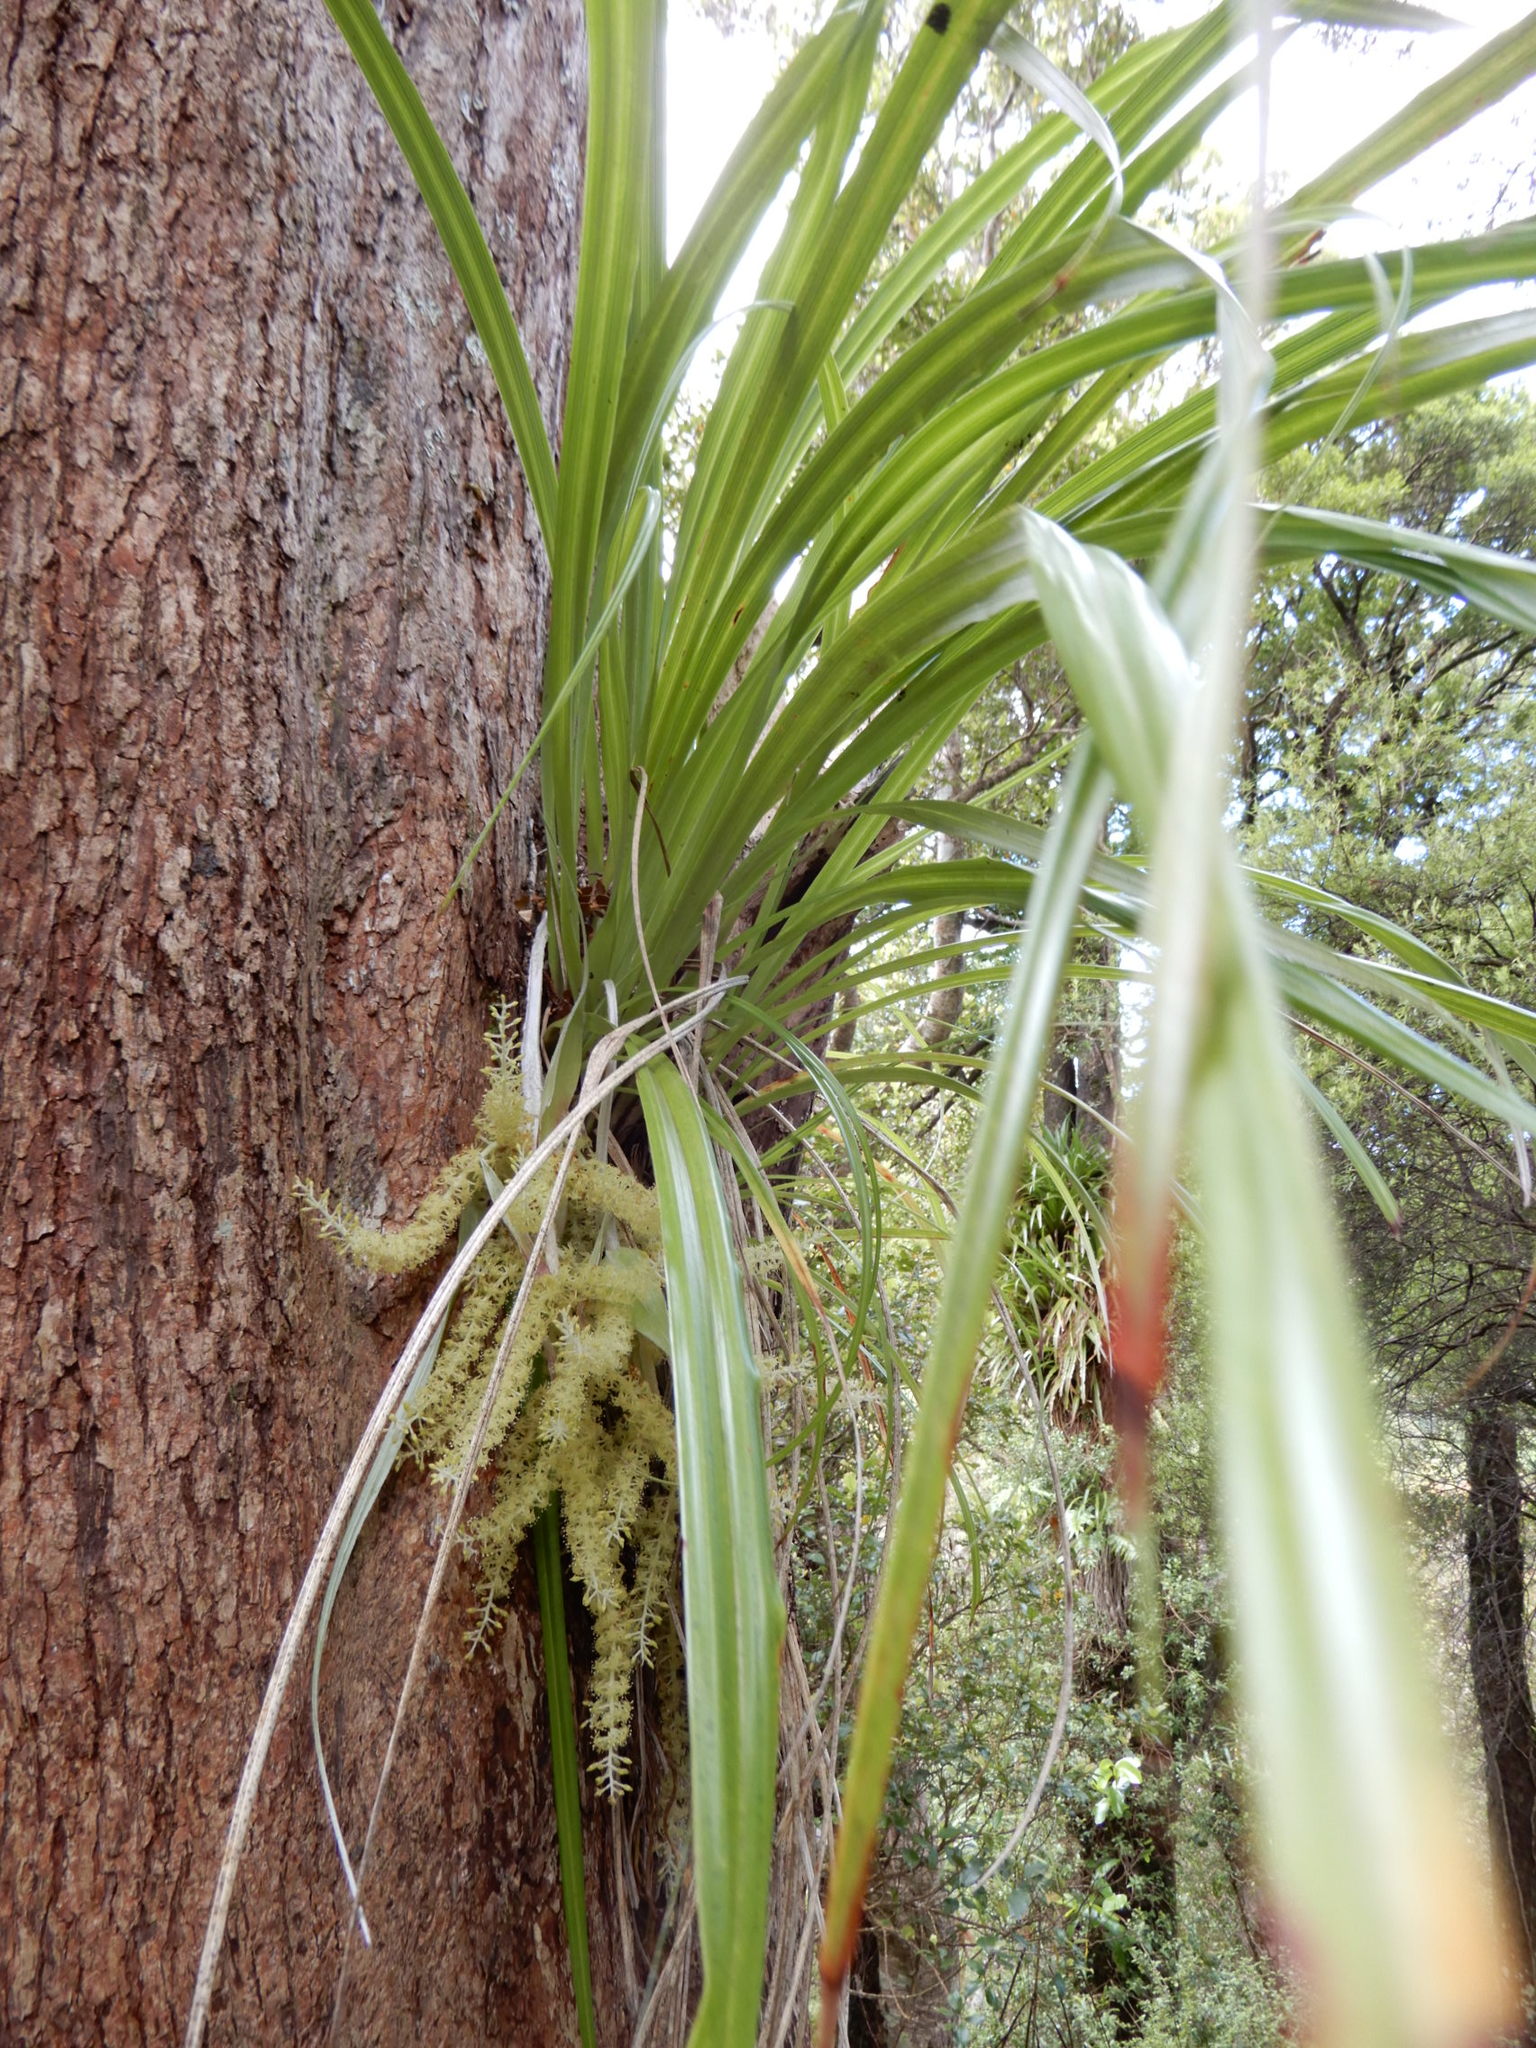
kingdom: Plantae
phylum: Tracheophyta
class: Liliopsida
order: Asparagales
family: Asteliaceae
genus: Astelia
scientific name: Astelia solandri
